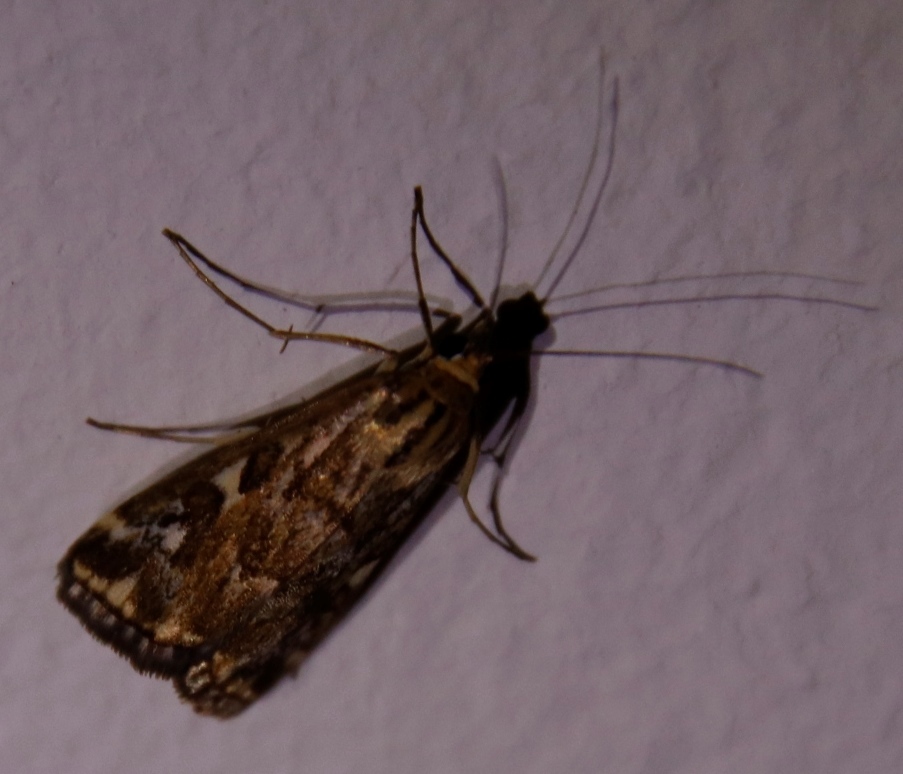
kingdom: Animalia
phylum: Arthropoda
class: Insecta
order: Lepidoptera
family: Crambidae
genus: Loxostege
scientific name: Loxostege frustalis
